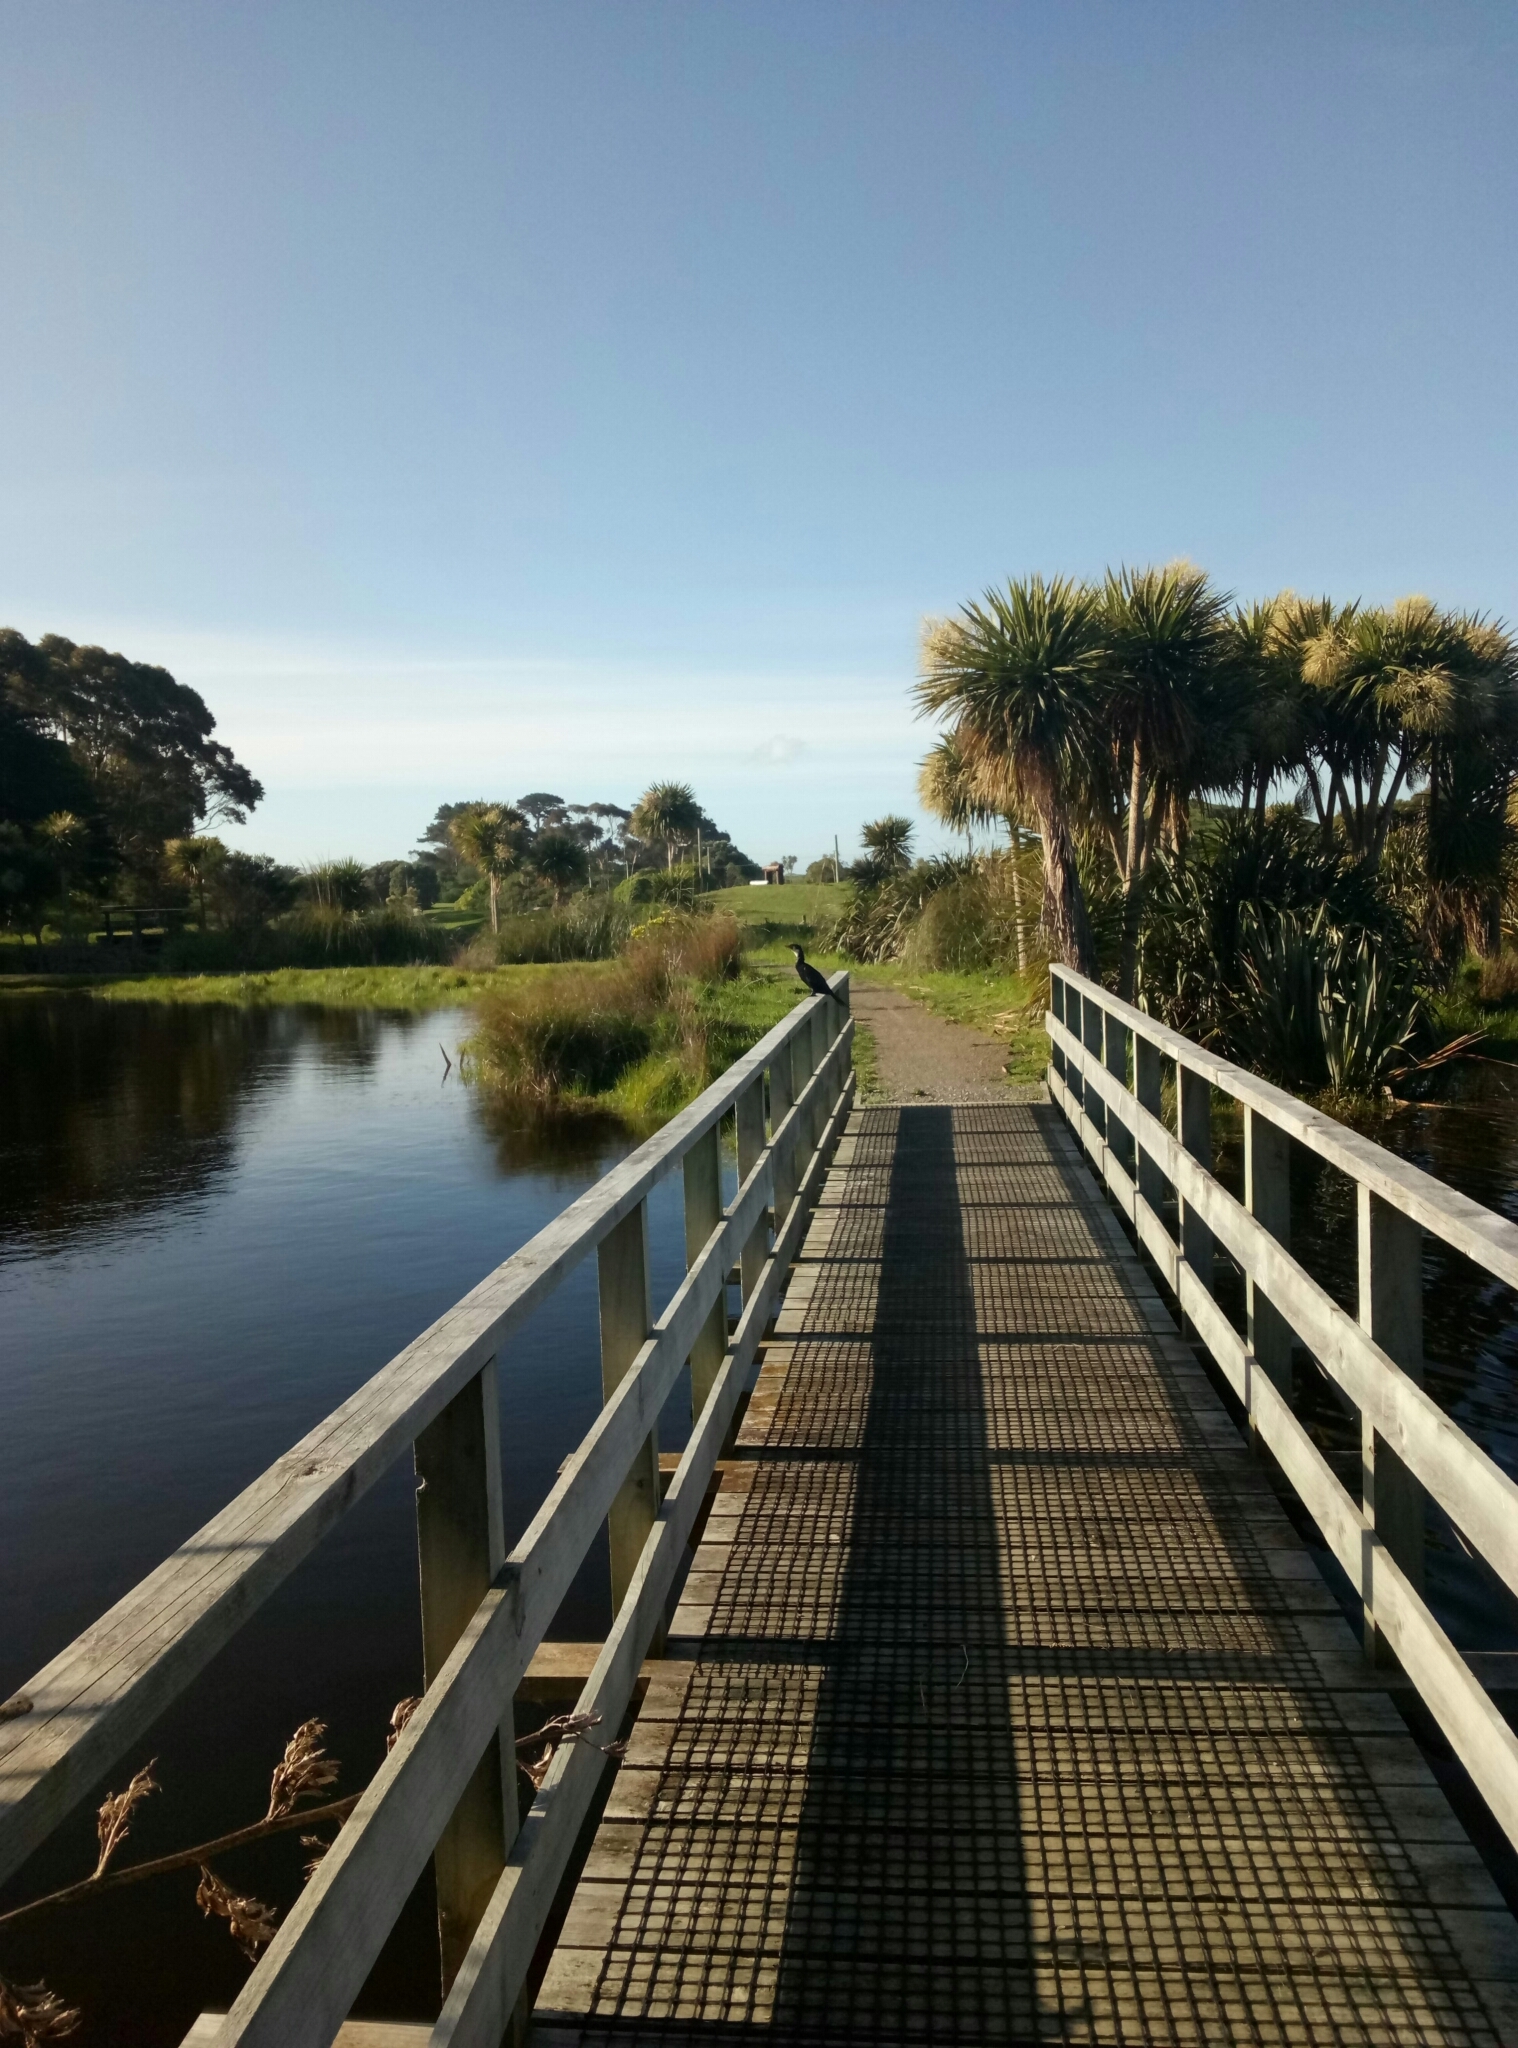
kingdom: Animalia
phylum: Chordata
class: Aves
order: Suliformes
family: Phalacrocoracidae
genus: Microcarbo
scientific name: Microcarbo melanoleucos
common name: Little pied cormorant
